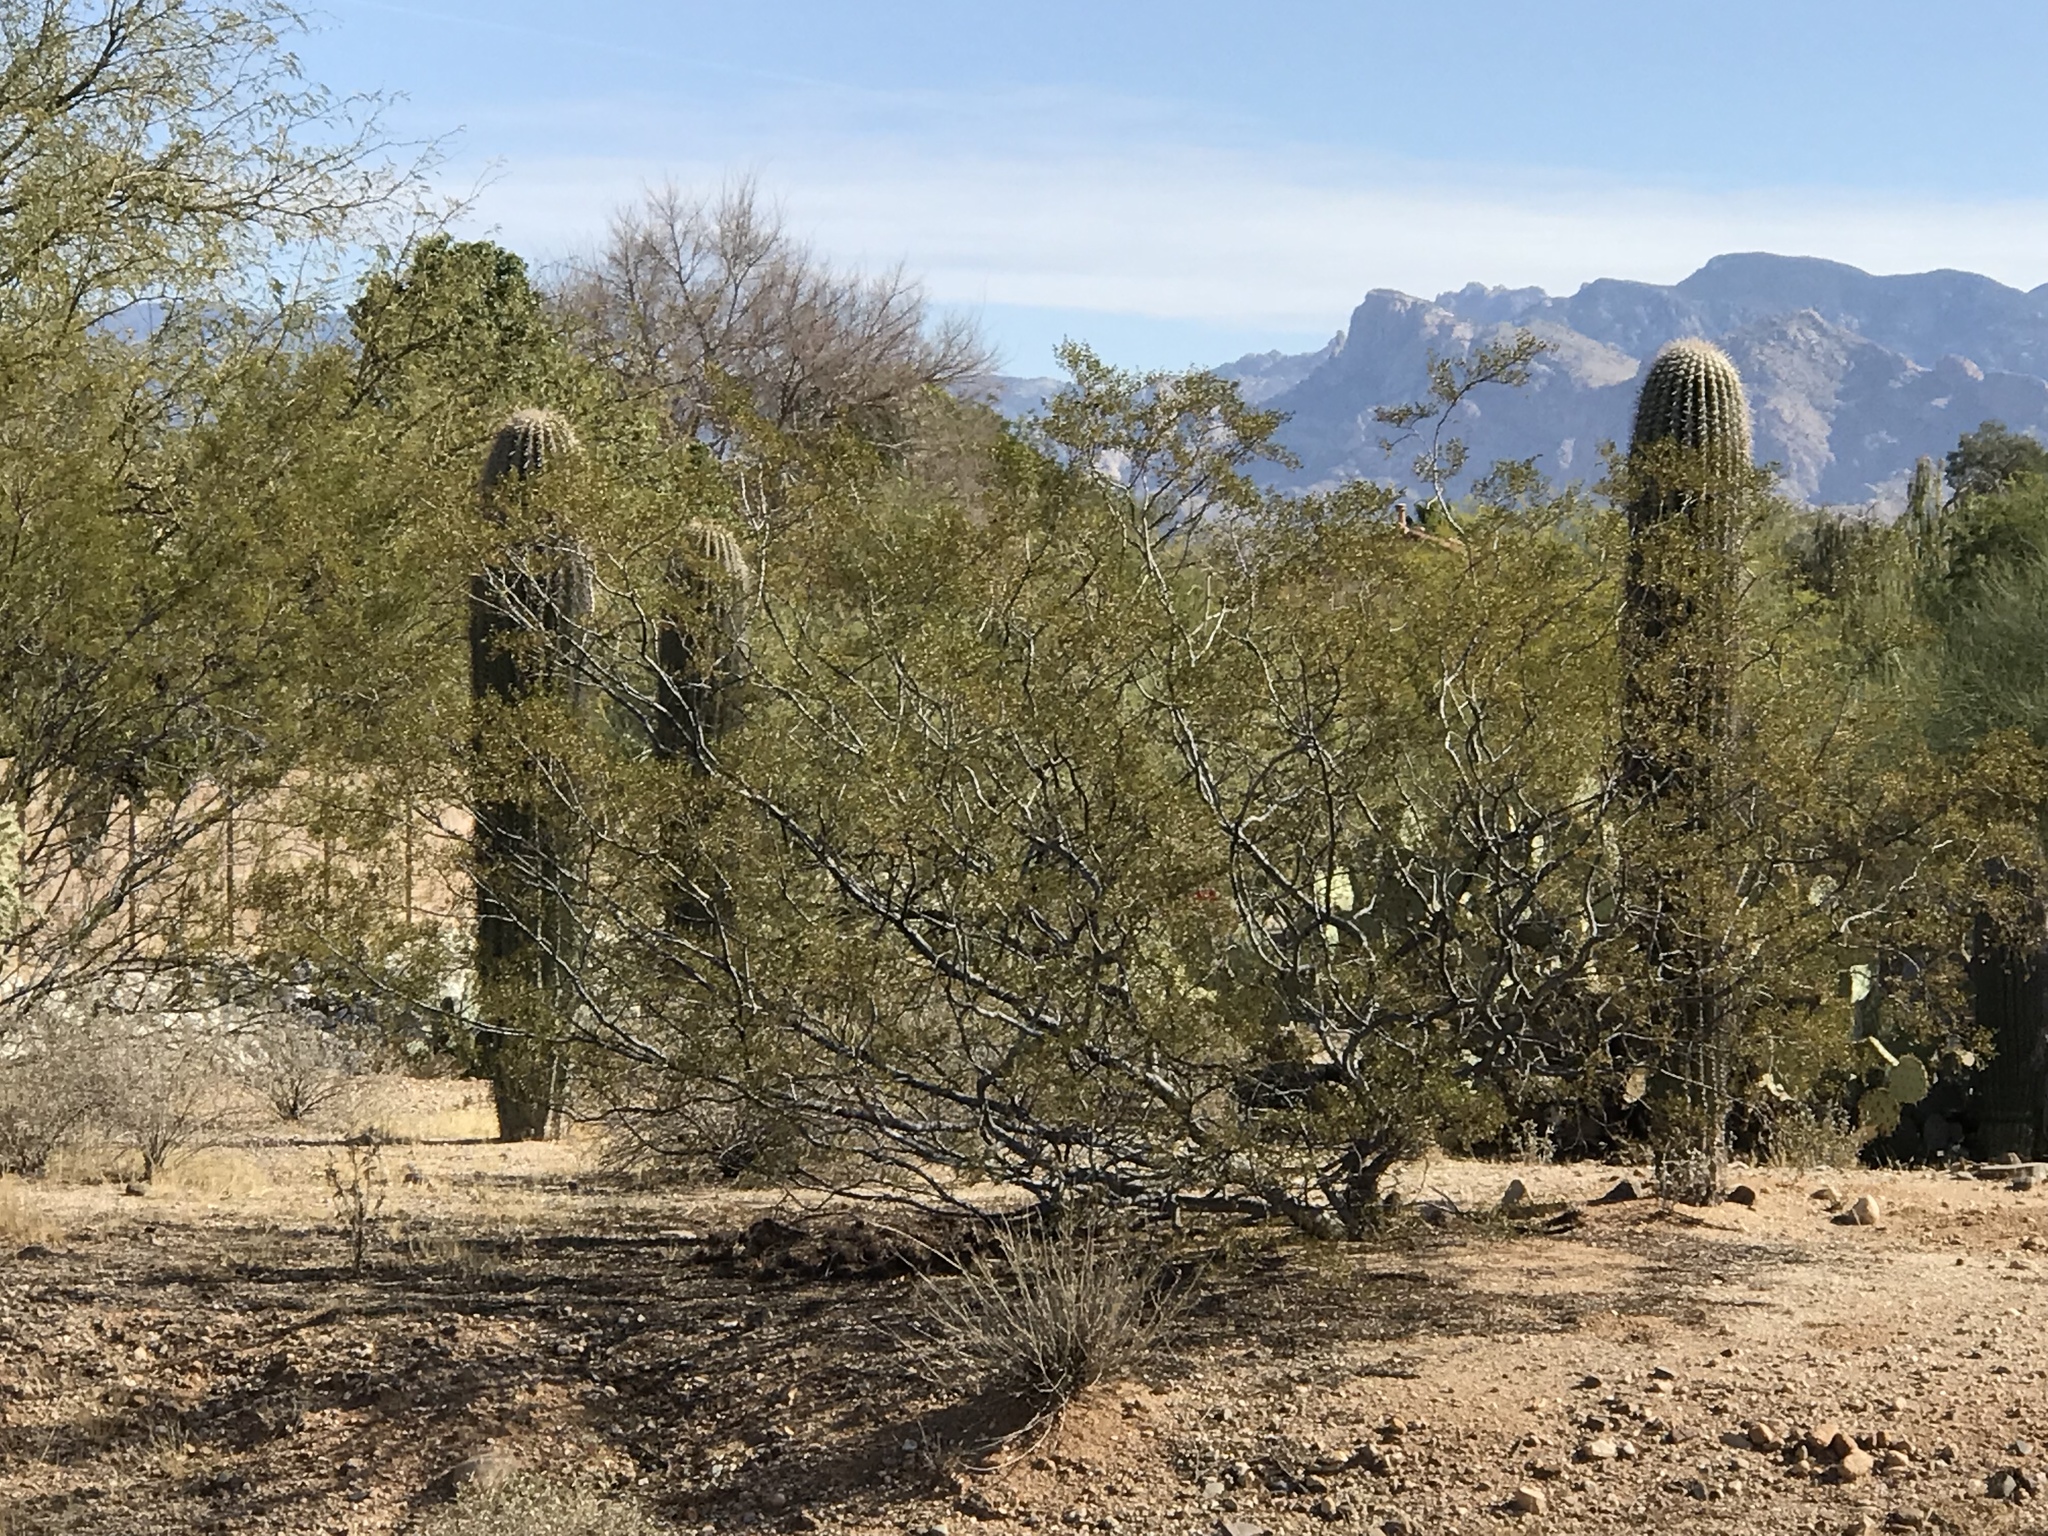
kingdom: Plantae
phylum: Tracheophyta
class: Magnoliopsida
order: Zygophyllales
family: Zygophyllaceae
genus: Larrea
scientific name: Larrea tridentata
